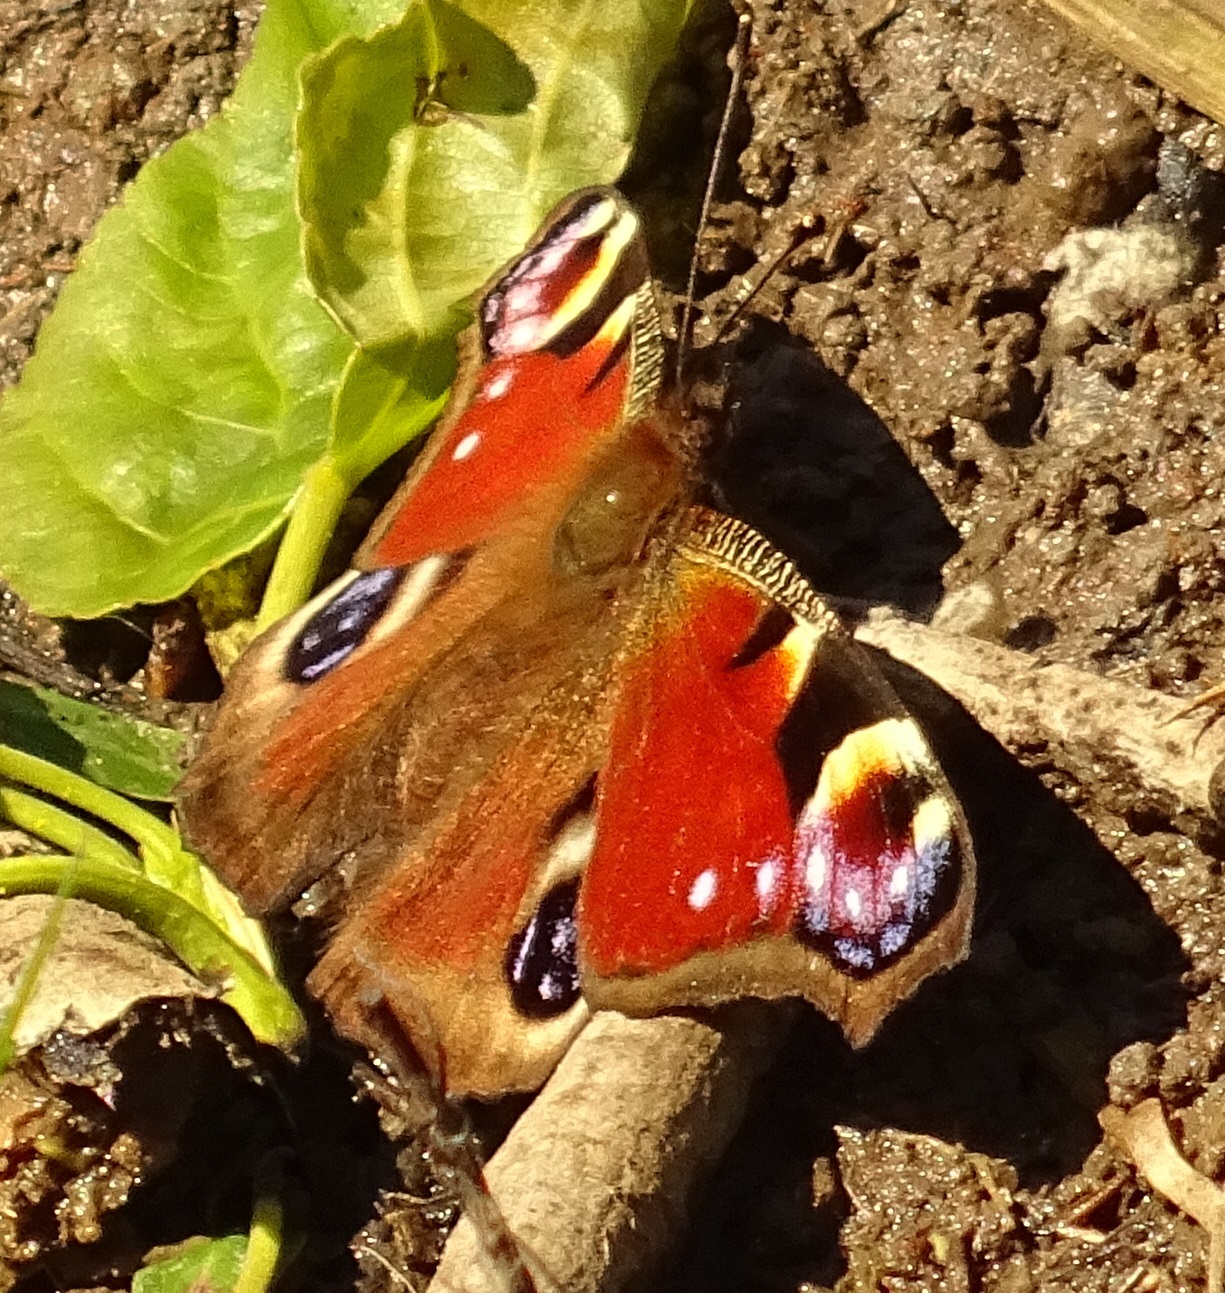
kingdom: Animalia
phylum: Arthropoda
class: Insecta
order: Lepidoptera
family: Nymphalidae
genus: Aglais
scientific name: Aglais io
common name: Peacock
